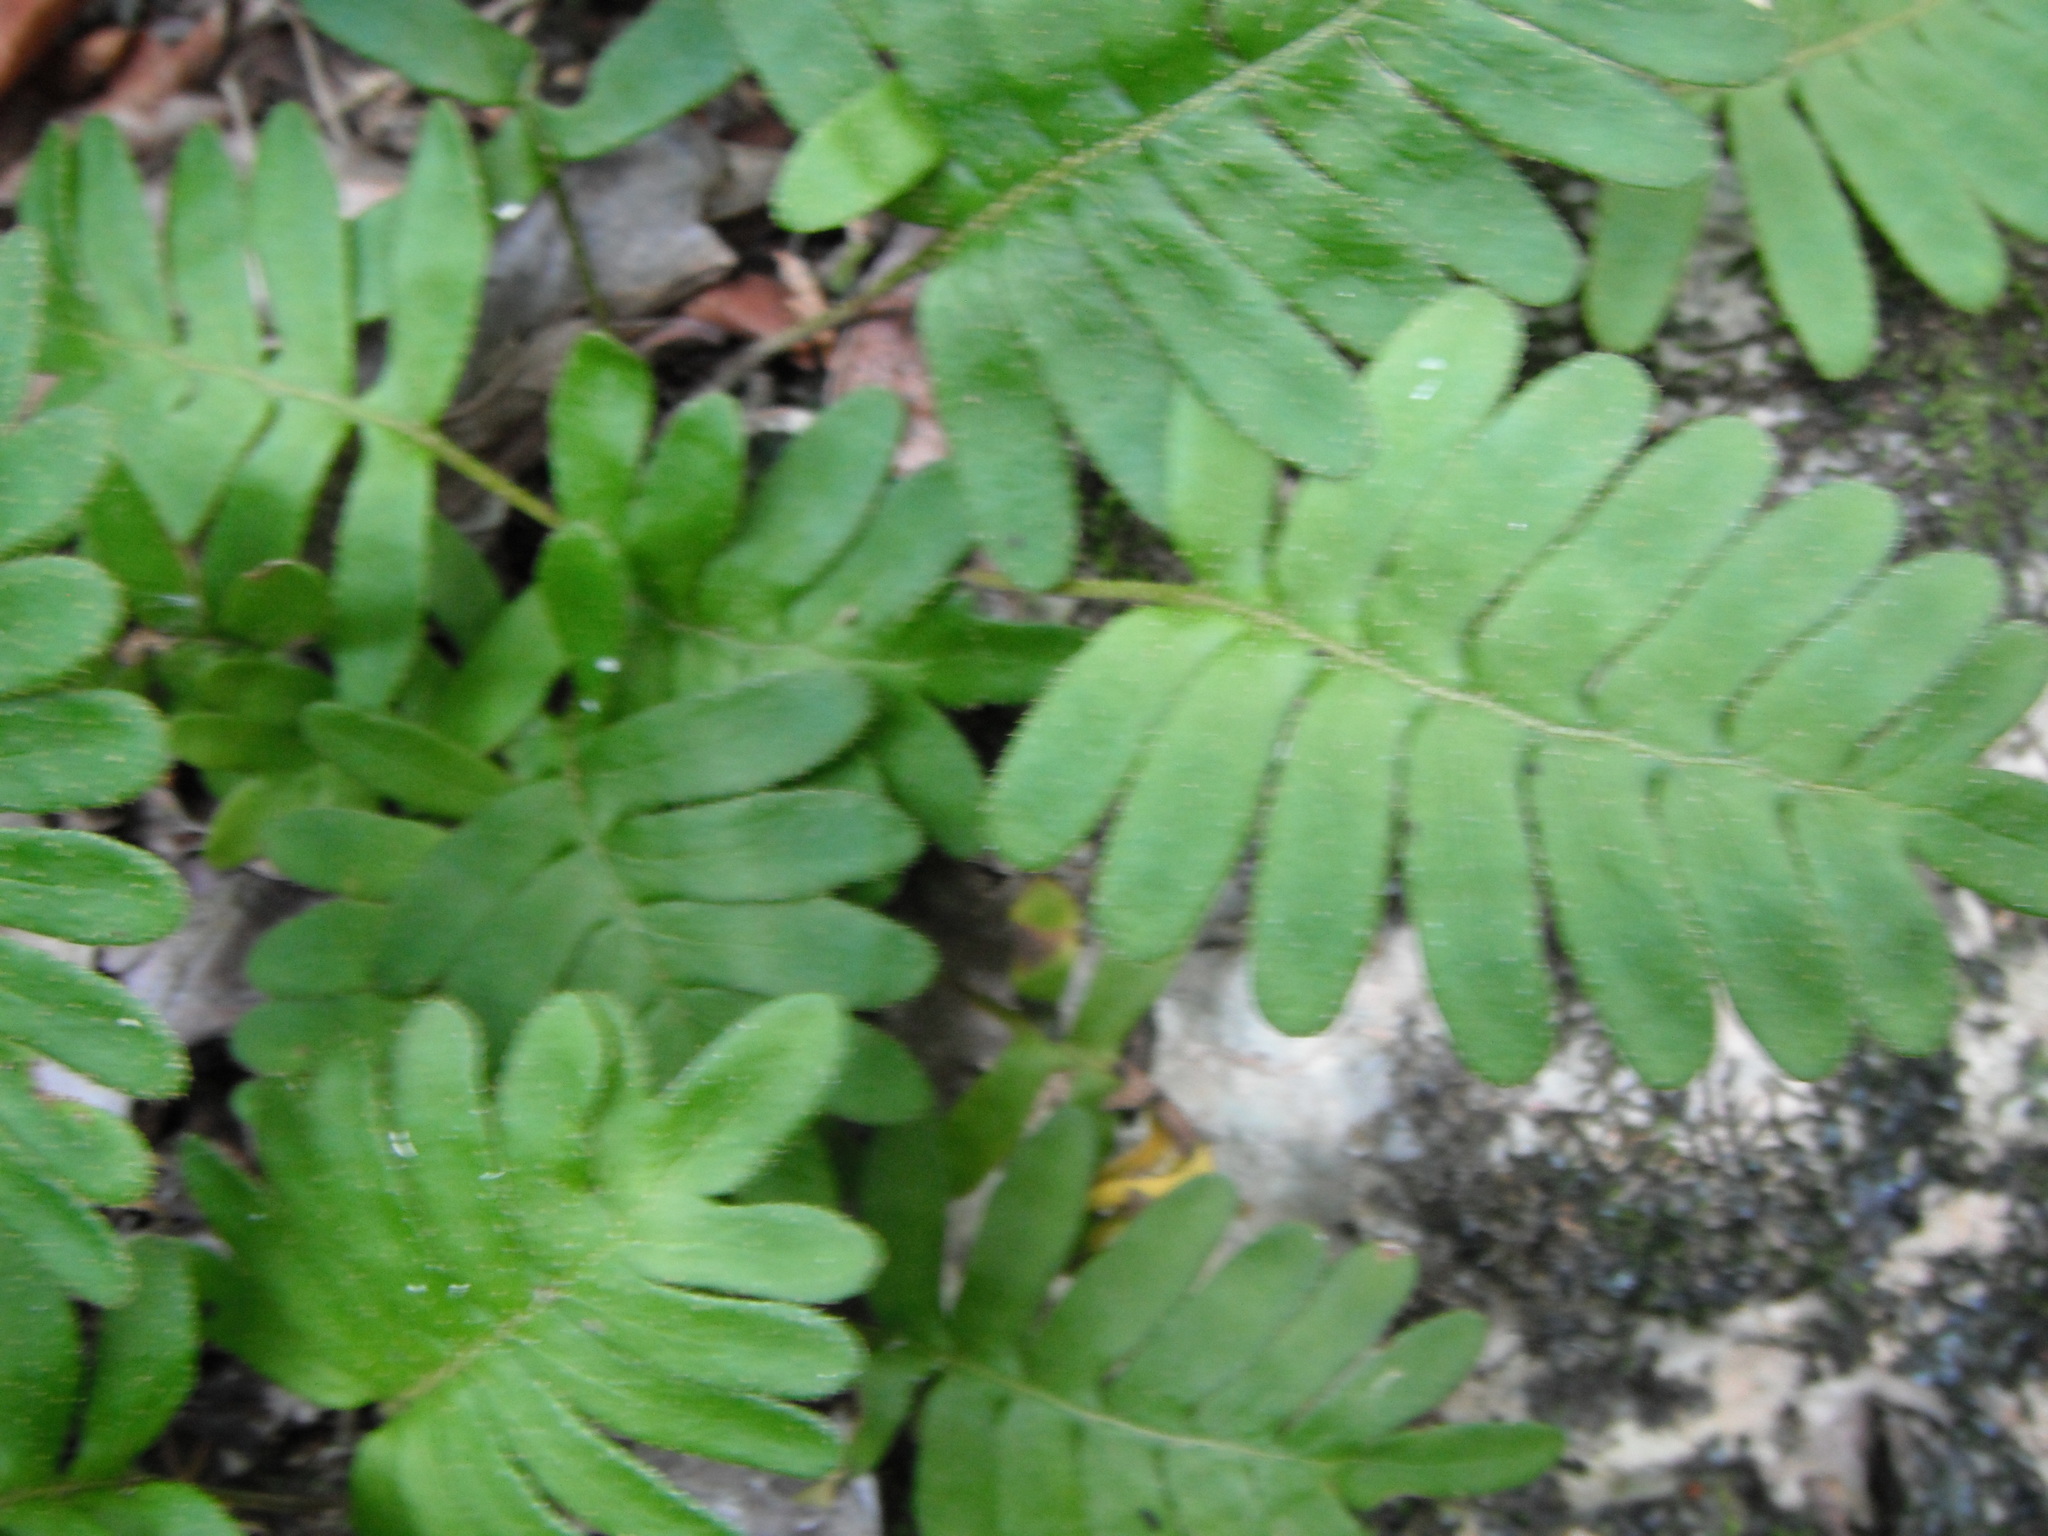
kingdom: Plantae
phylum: Tracheophyta
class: Polypodiopsida
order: Polypodiales
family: Polypodiaceae
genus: Pleopeltis
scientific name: Pleopeltis polypodioides
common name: Resurrection fern
